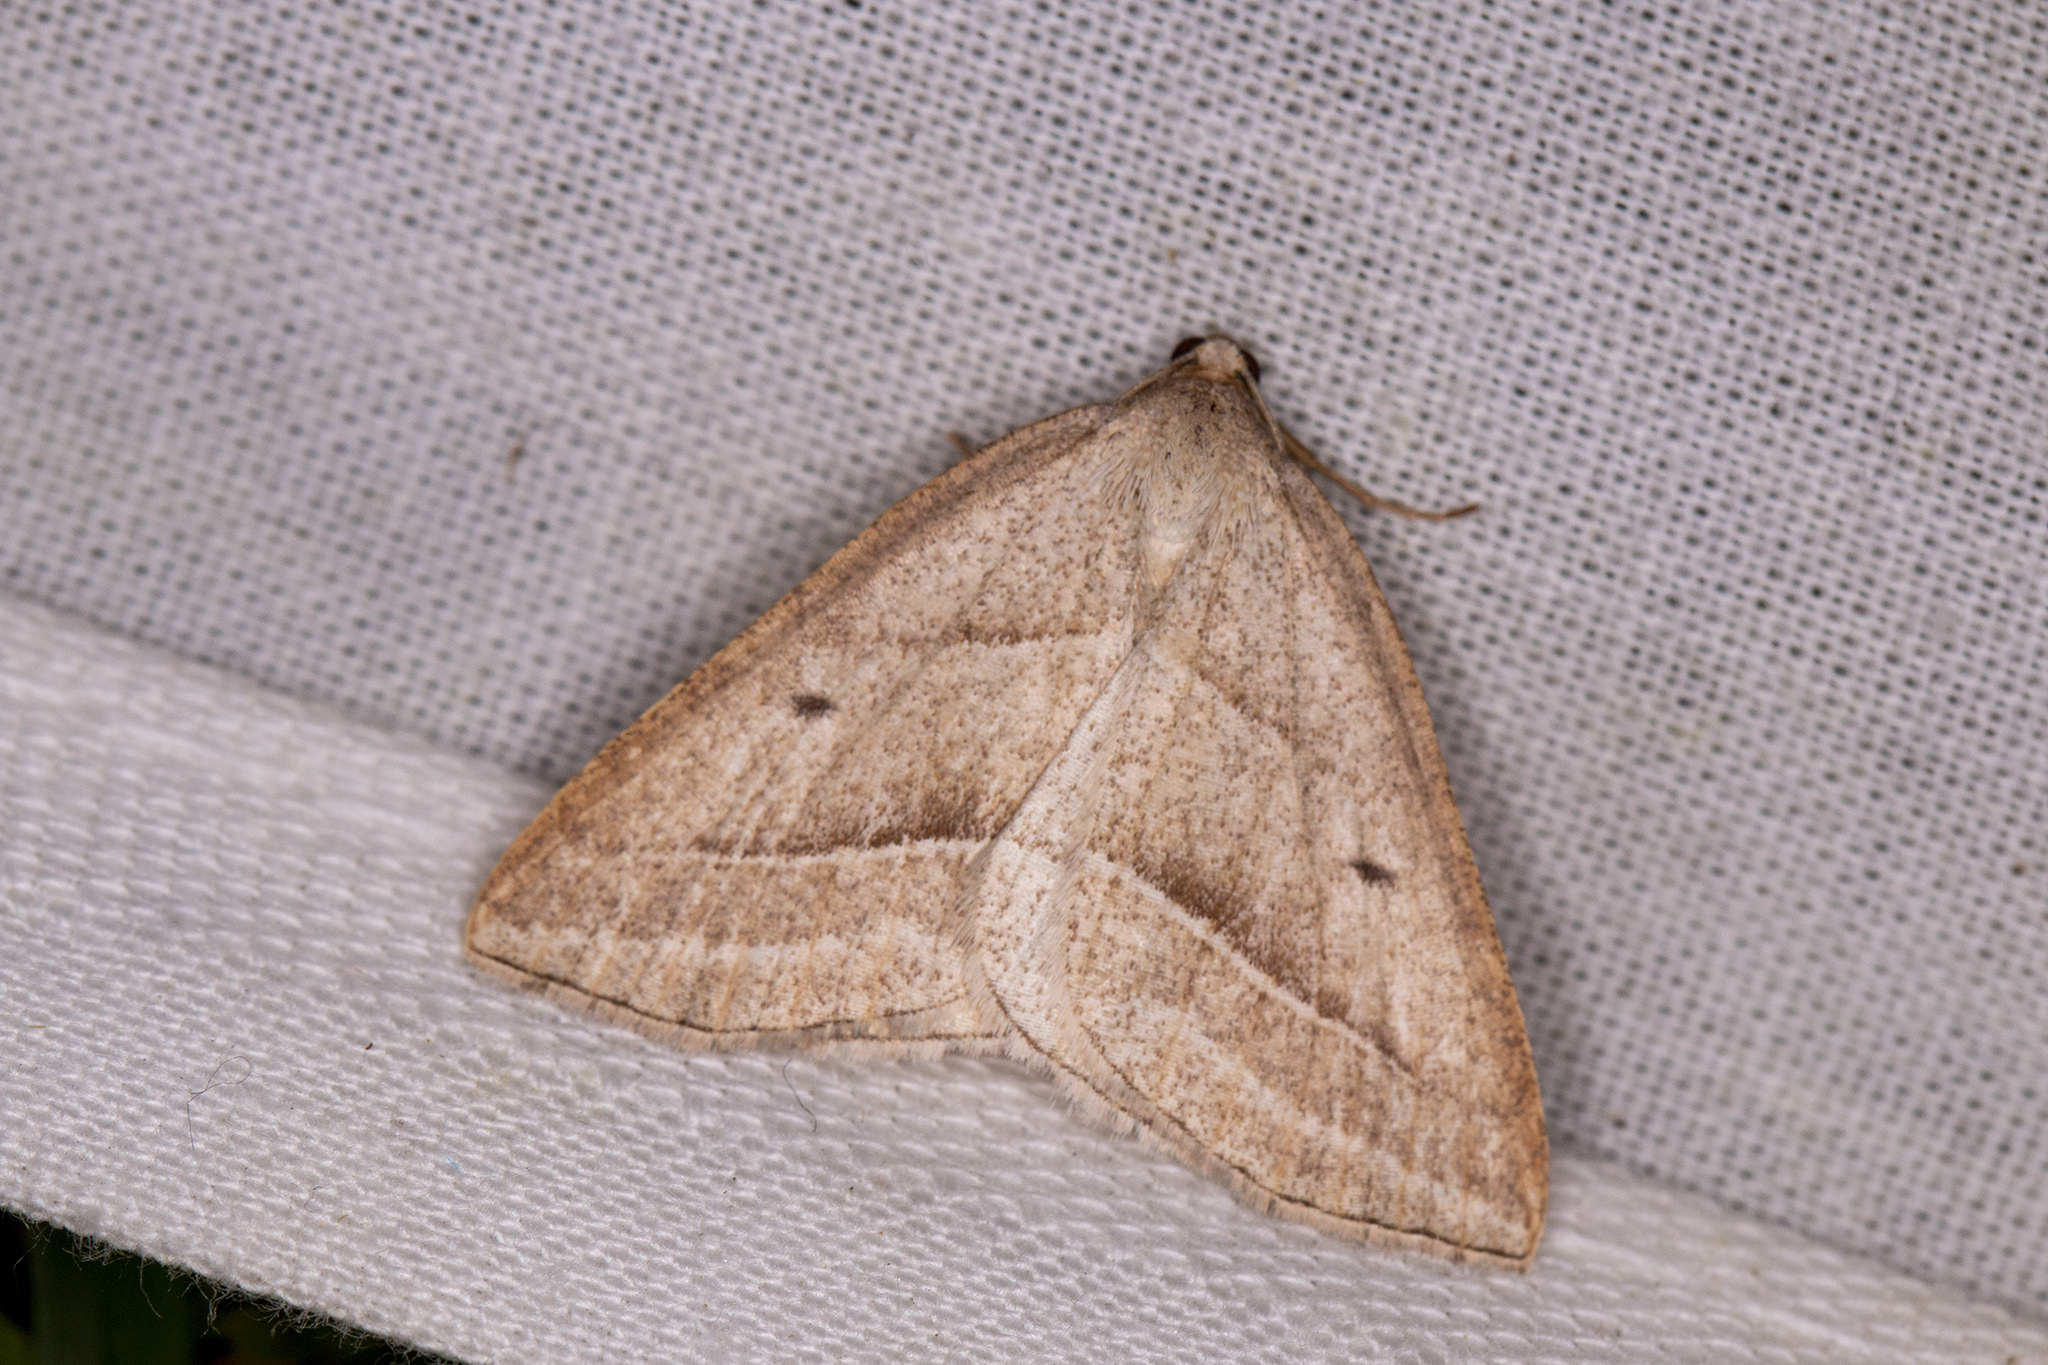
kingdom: Animalia
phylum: Arthropoda
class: Insecta
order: Lepidoptera
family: Pterophoridae
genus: Pterophorus
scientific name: Pterophorus Petrophora chlorosata
